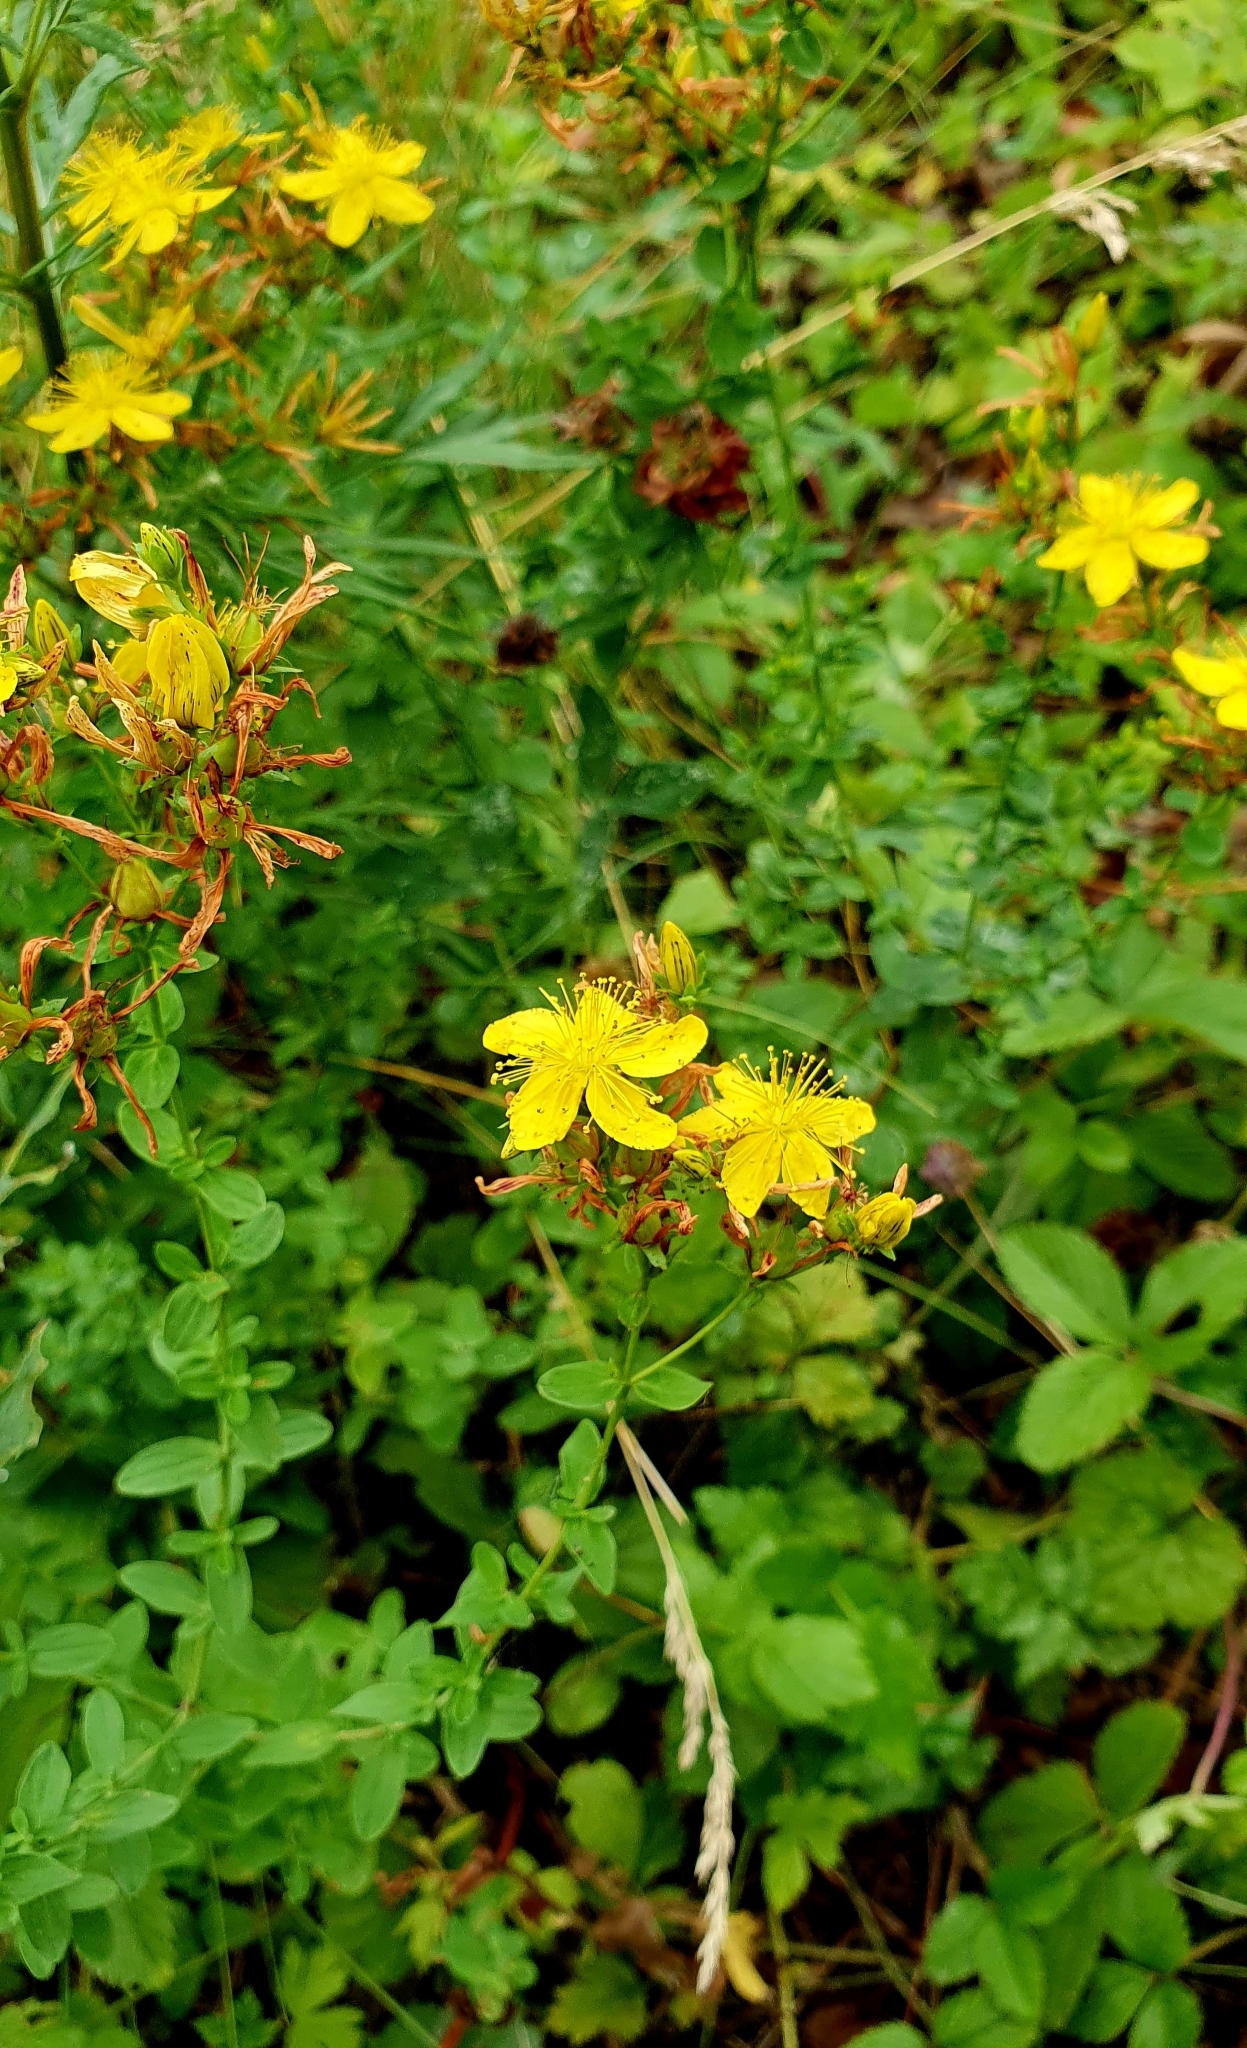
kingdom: Plantae
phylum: Tracheophyta
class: Magnoliopsida
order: Malpighiales
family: Hypericaceae
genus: Hypericum
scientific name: Hypericum perforatum
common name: Common st. johnswort
